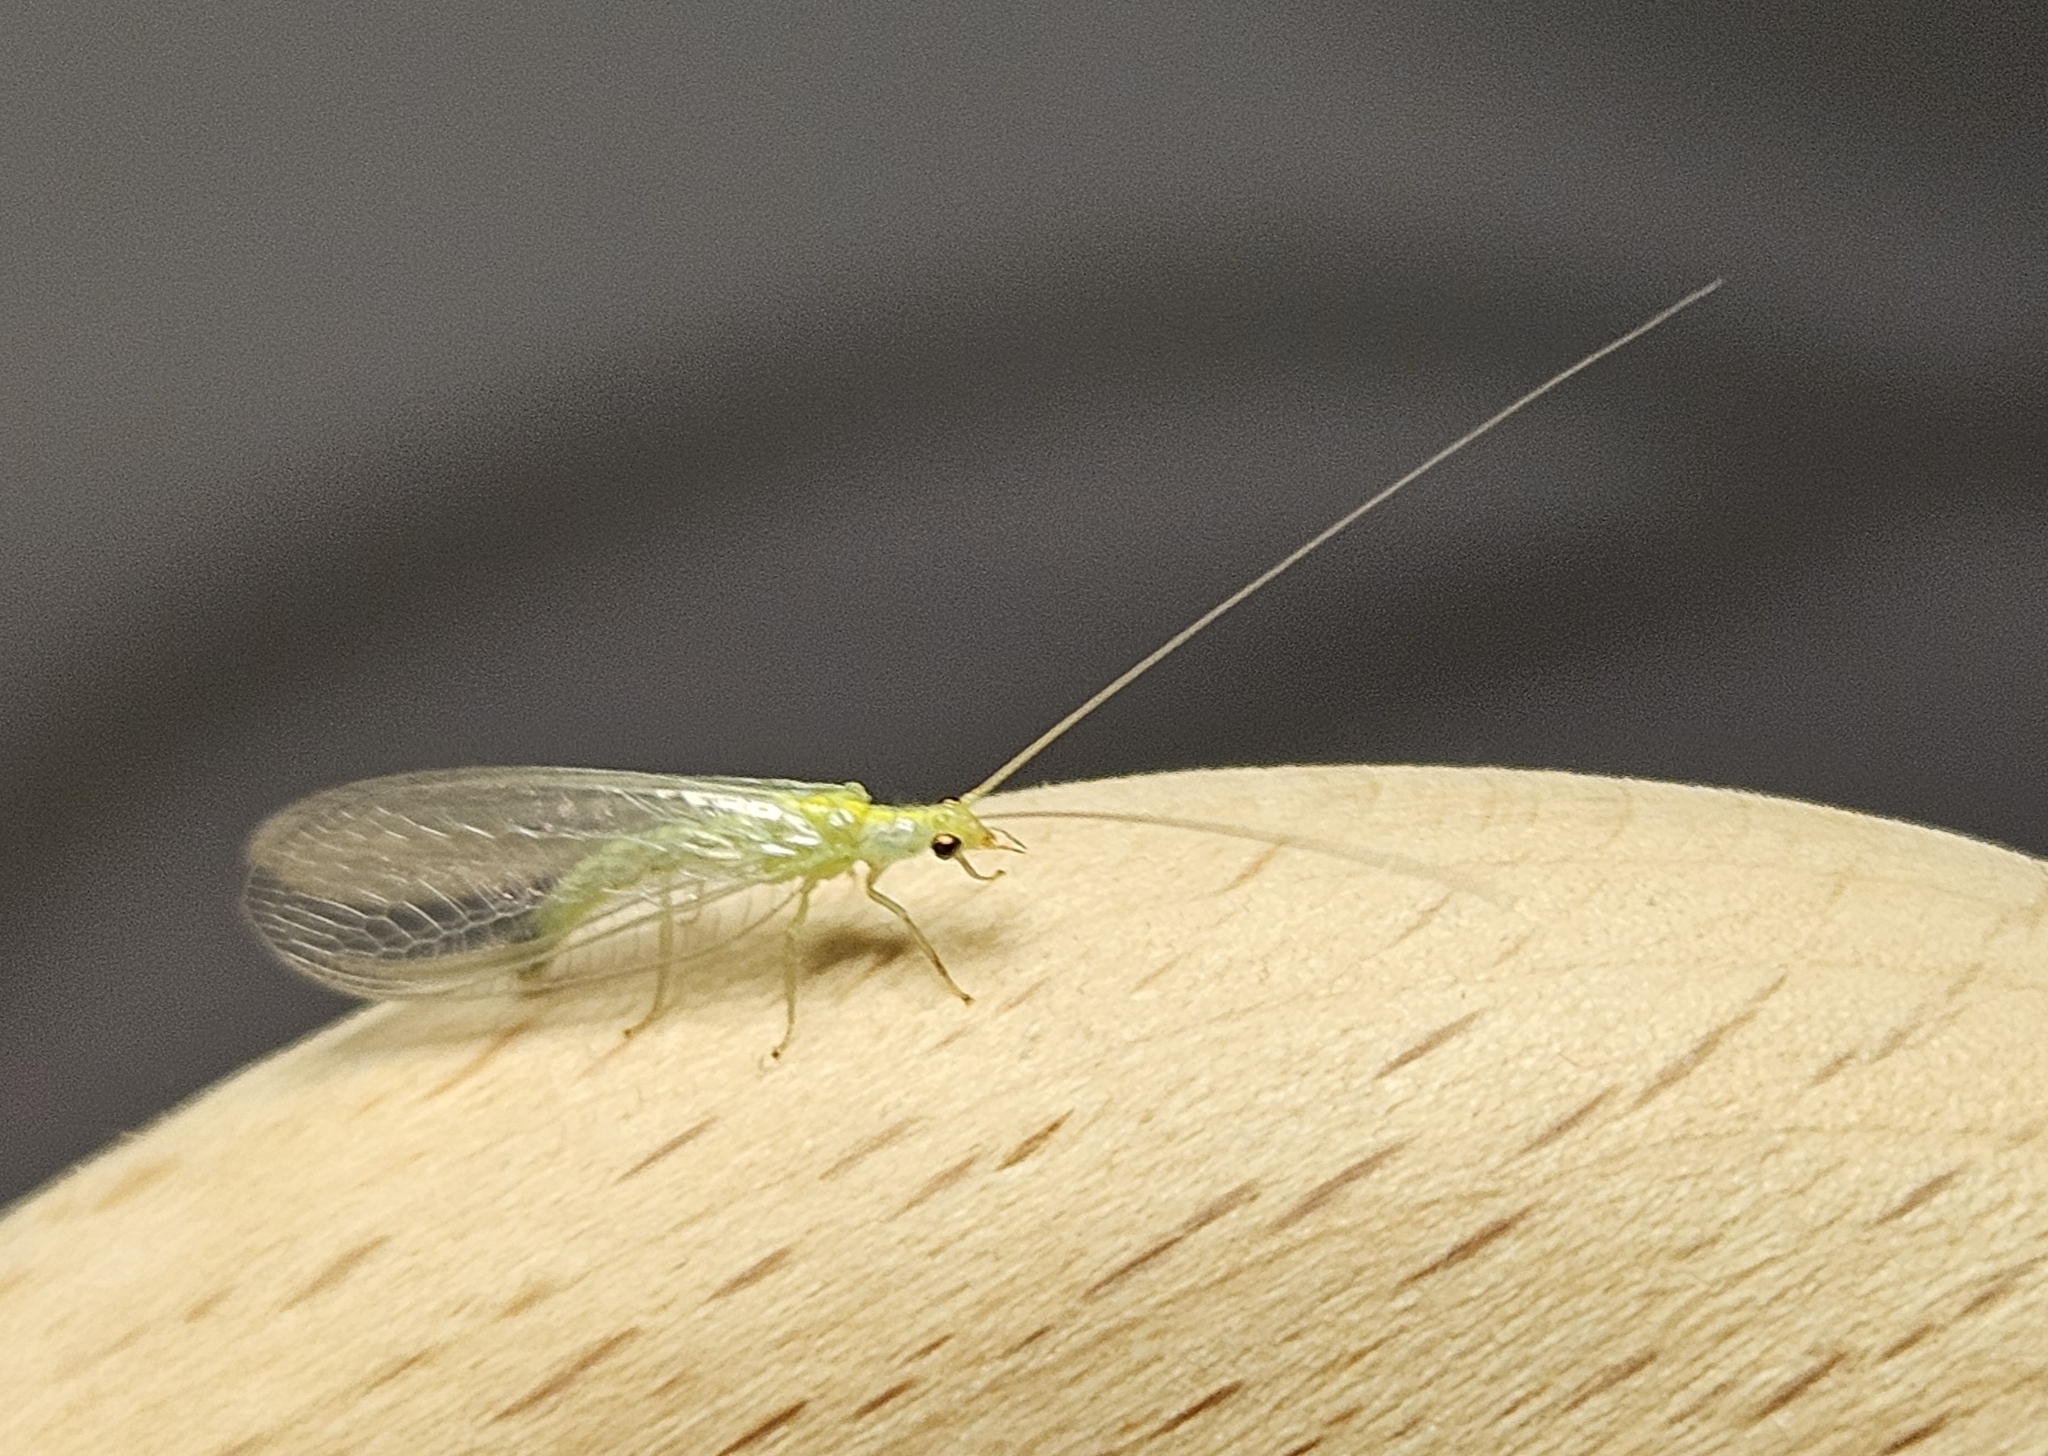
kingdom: Animalia
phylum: Arthropoda
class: Insecta
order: Neuroptera
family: Chrysopidae
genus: Mallada
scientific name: Mallada basalis
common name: Green lacewing
